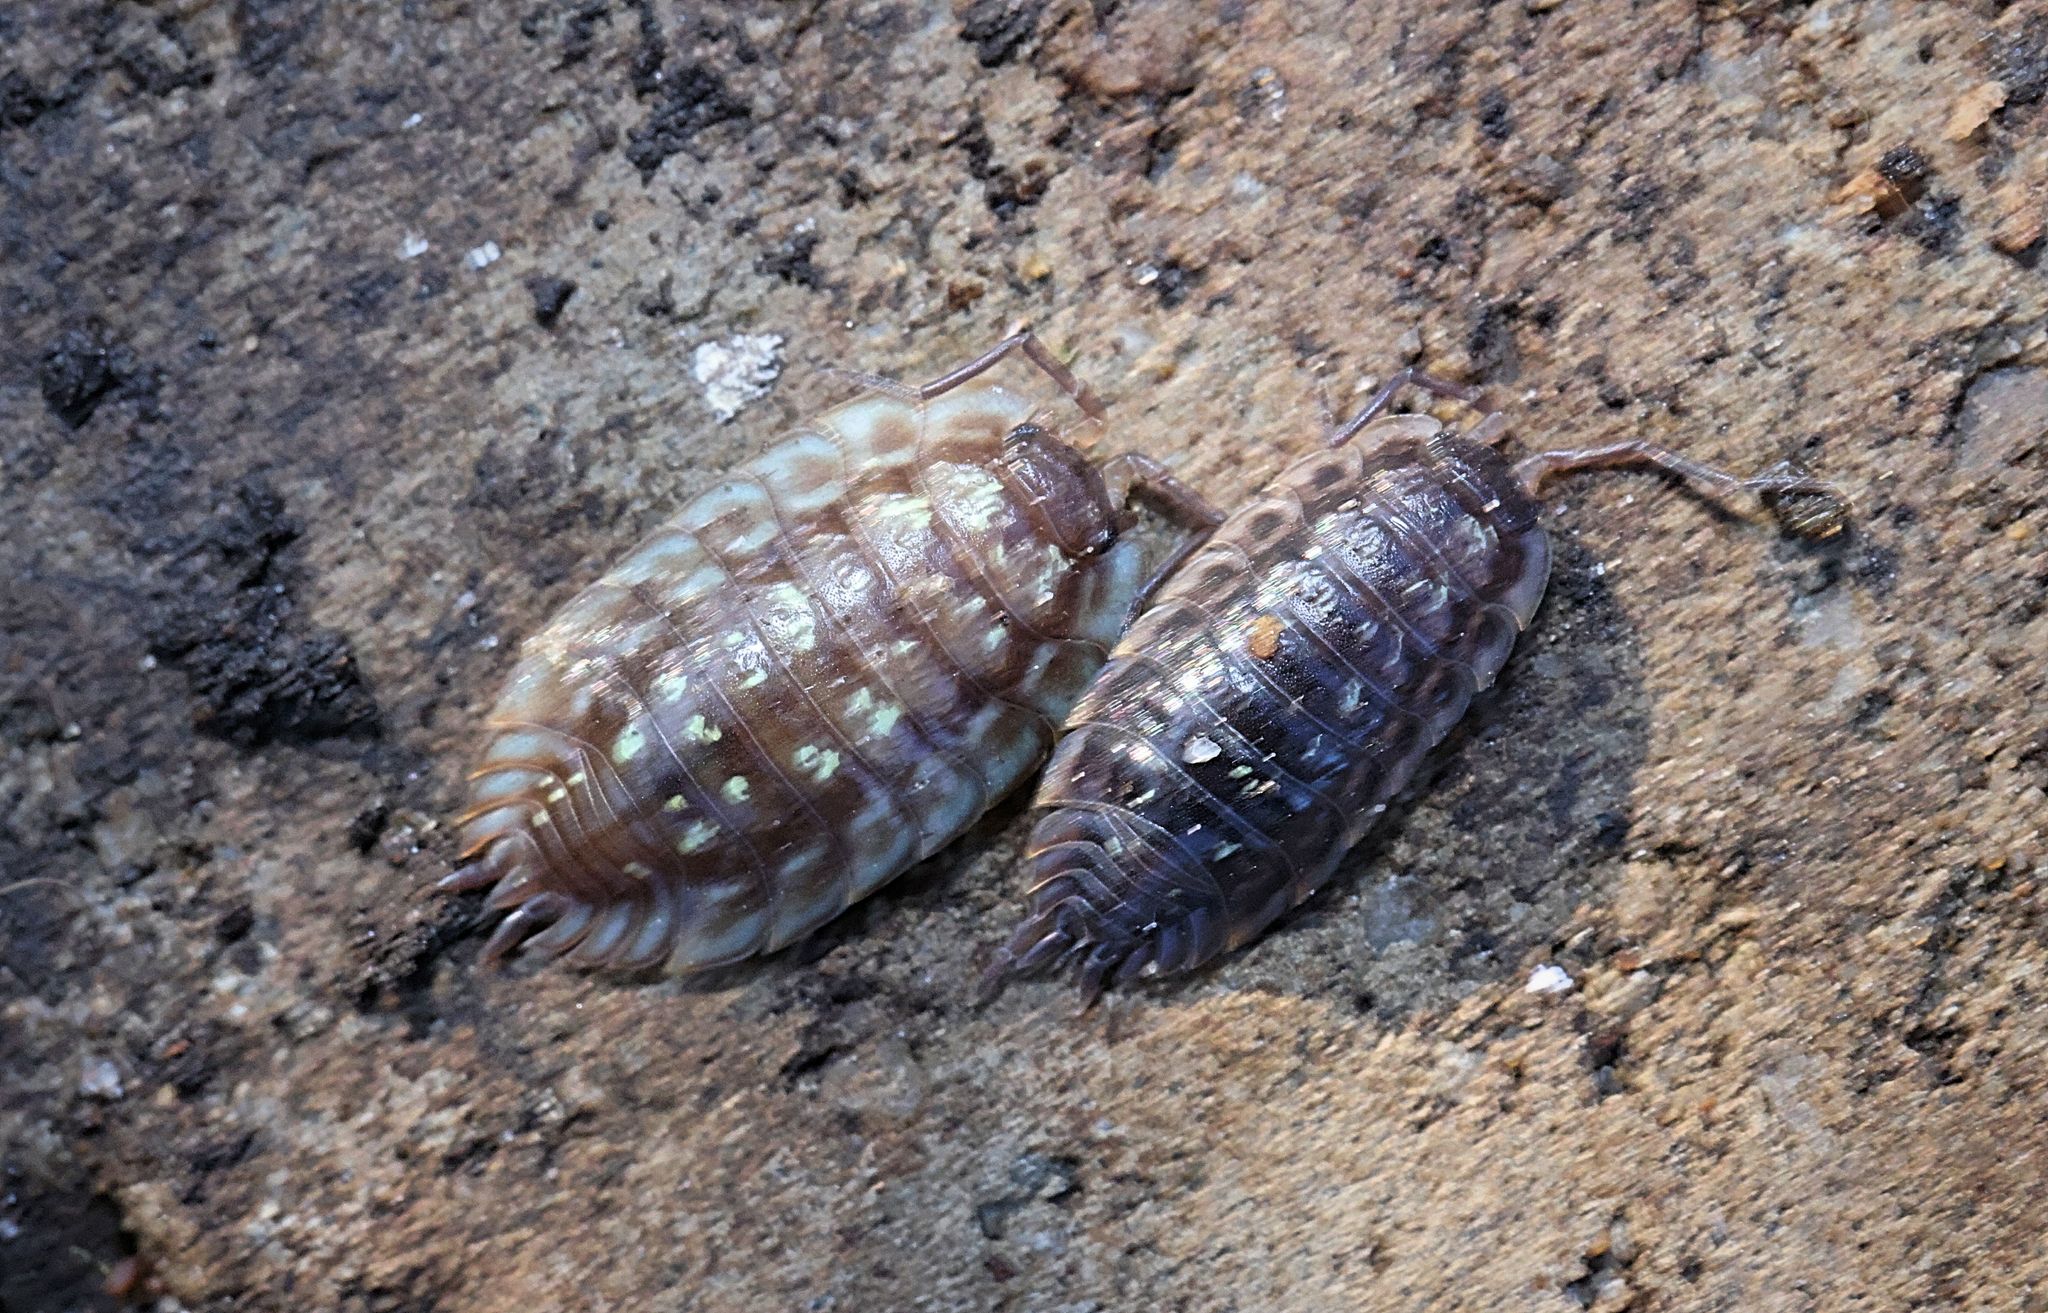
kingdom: Animalia
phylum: Arthropoda
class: Malacostraca
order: Isopoda
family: Oniscidae
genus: Oniscus
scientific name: Oniscus asellus
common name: Common shiny woodlouse
